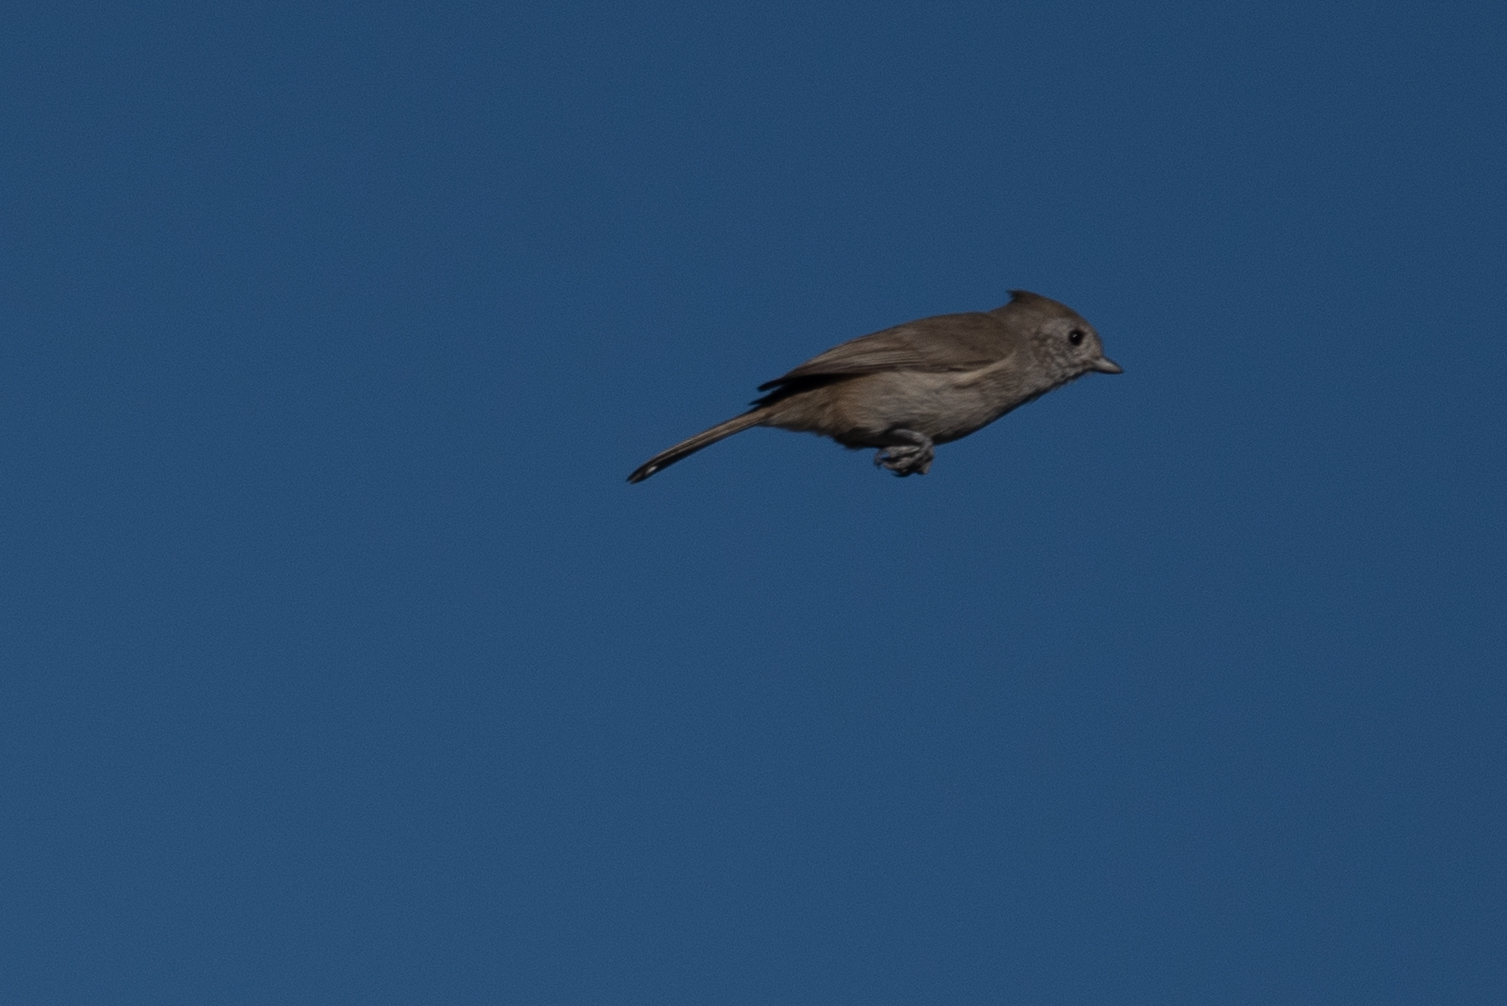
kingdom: Animalia
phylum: Chordata
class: Aves
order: Passeriformes
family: Paridae
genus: Baeolophus
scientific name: Baeolophus inornatus
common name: Oak titmouse
